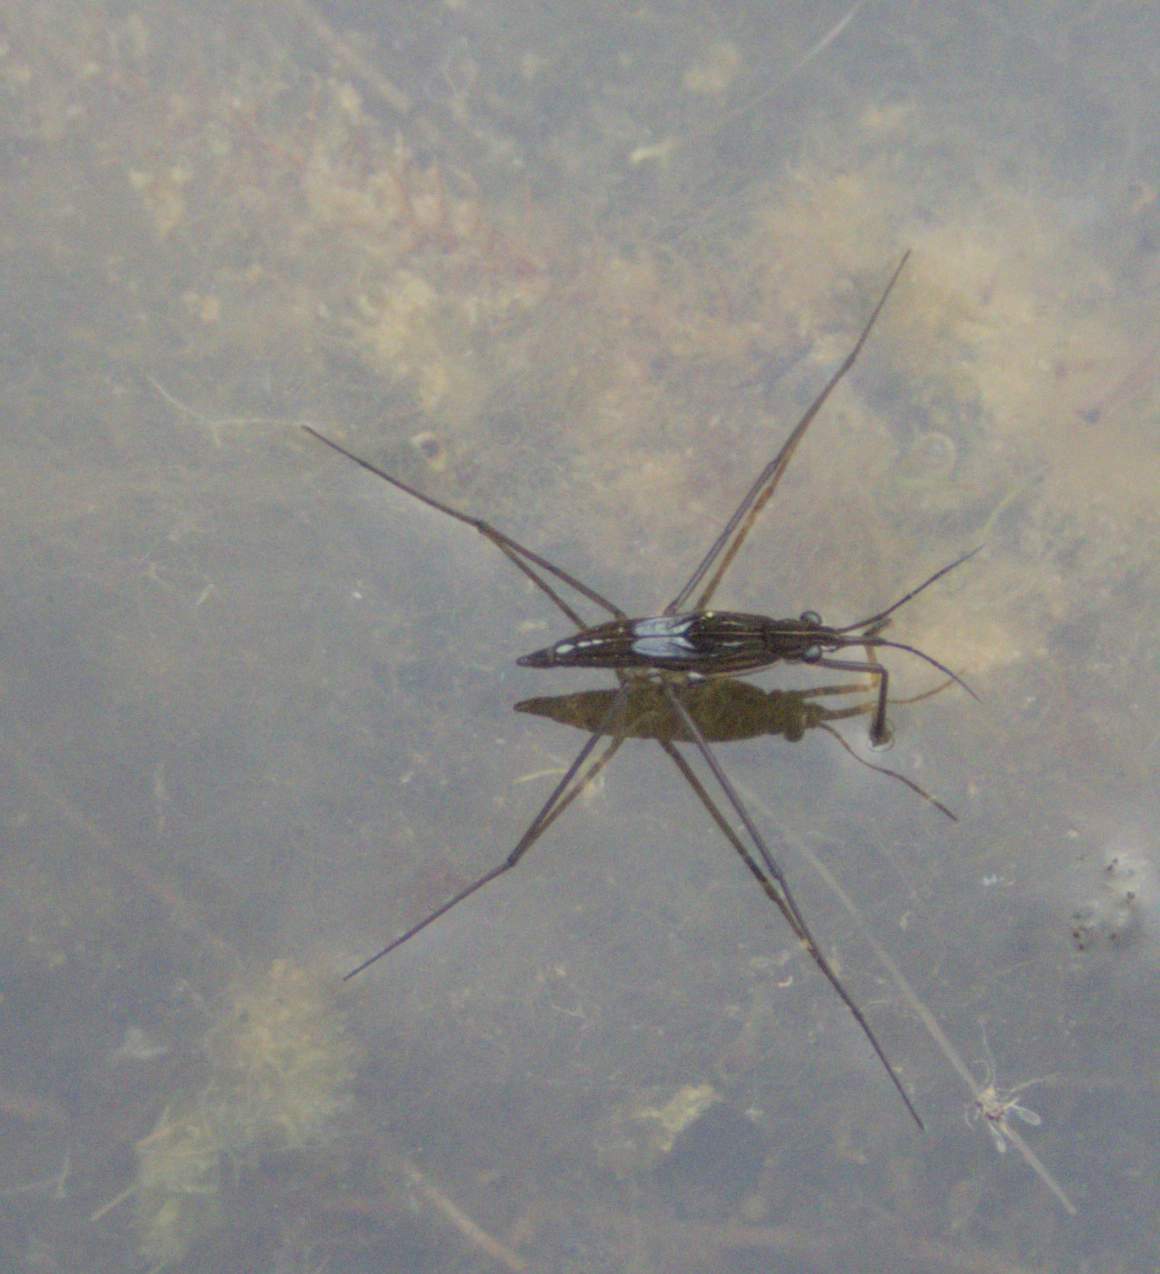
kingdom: Animalia
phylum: Arthropoda
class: Insecta
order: Hemiptera
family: Gerridae
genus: Limnoporus
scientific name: Limnoporus dissortis
